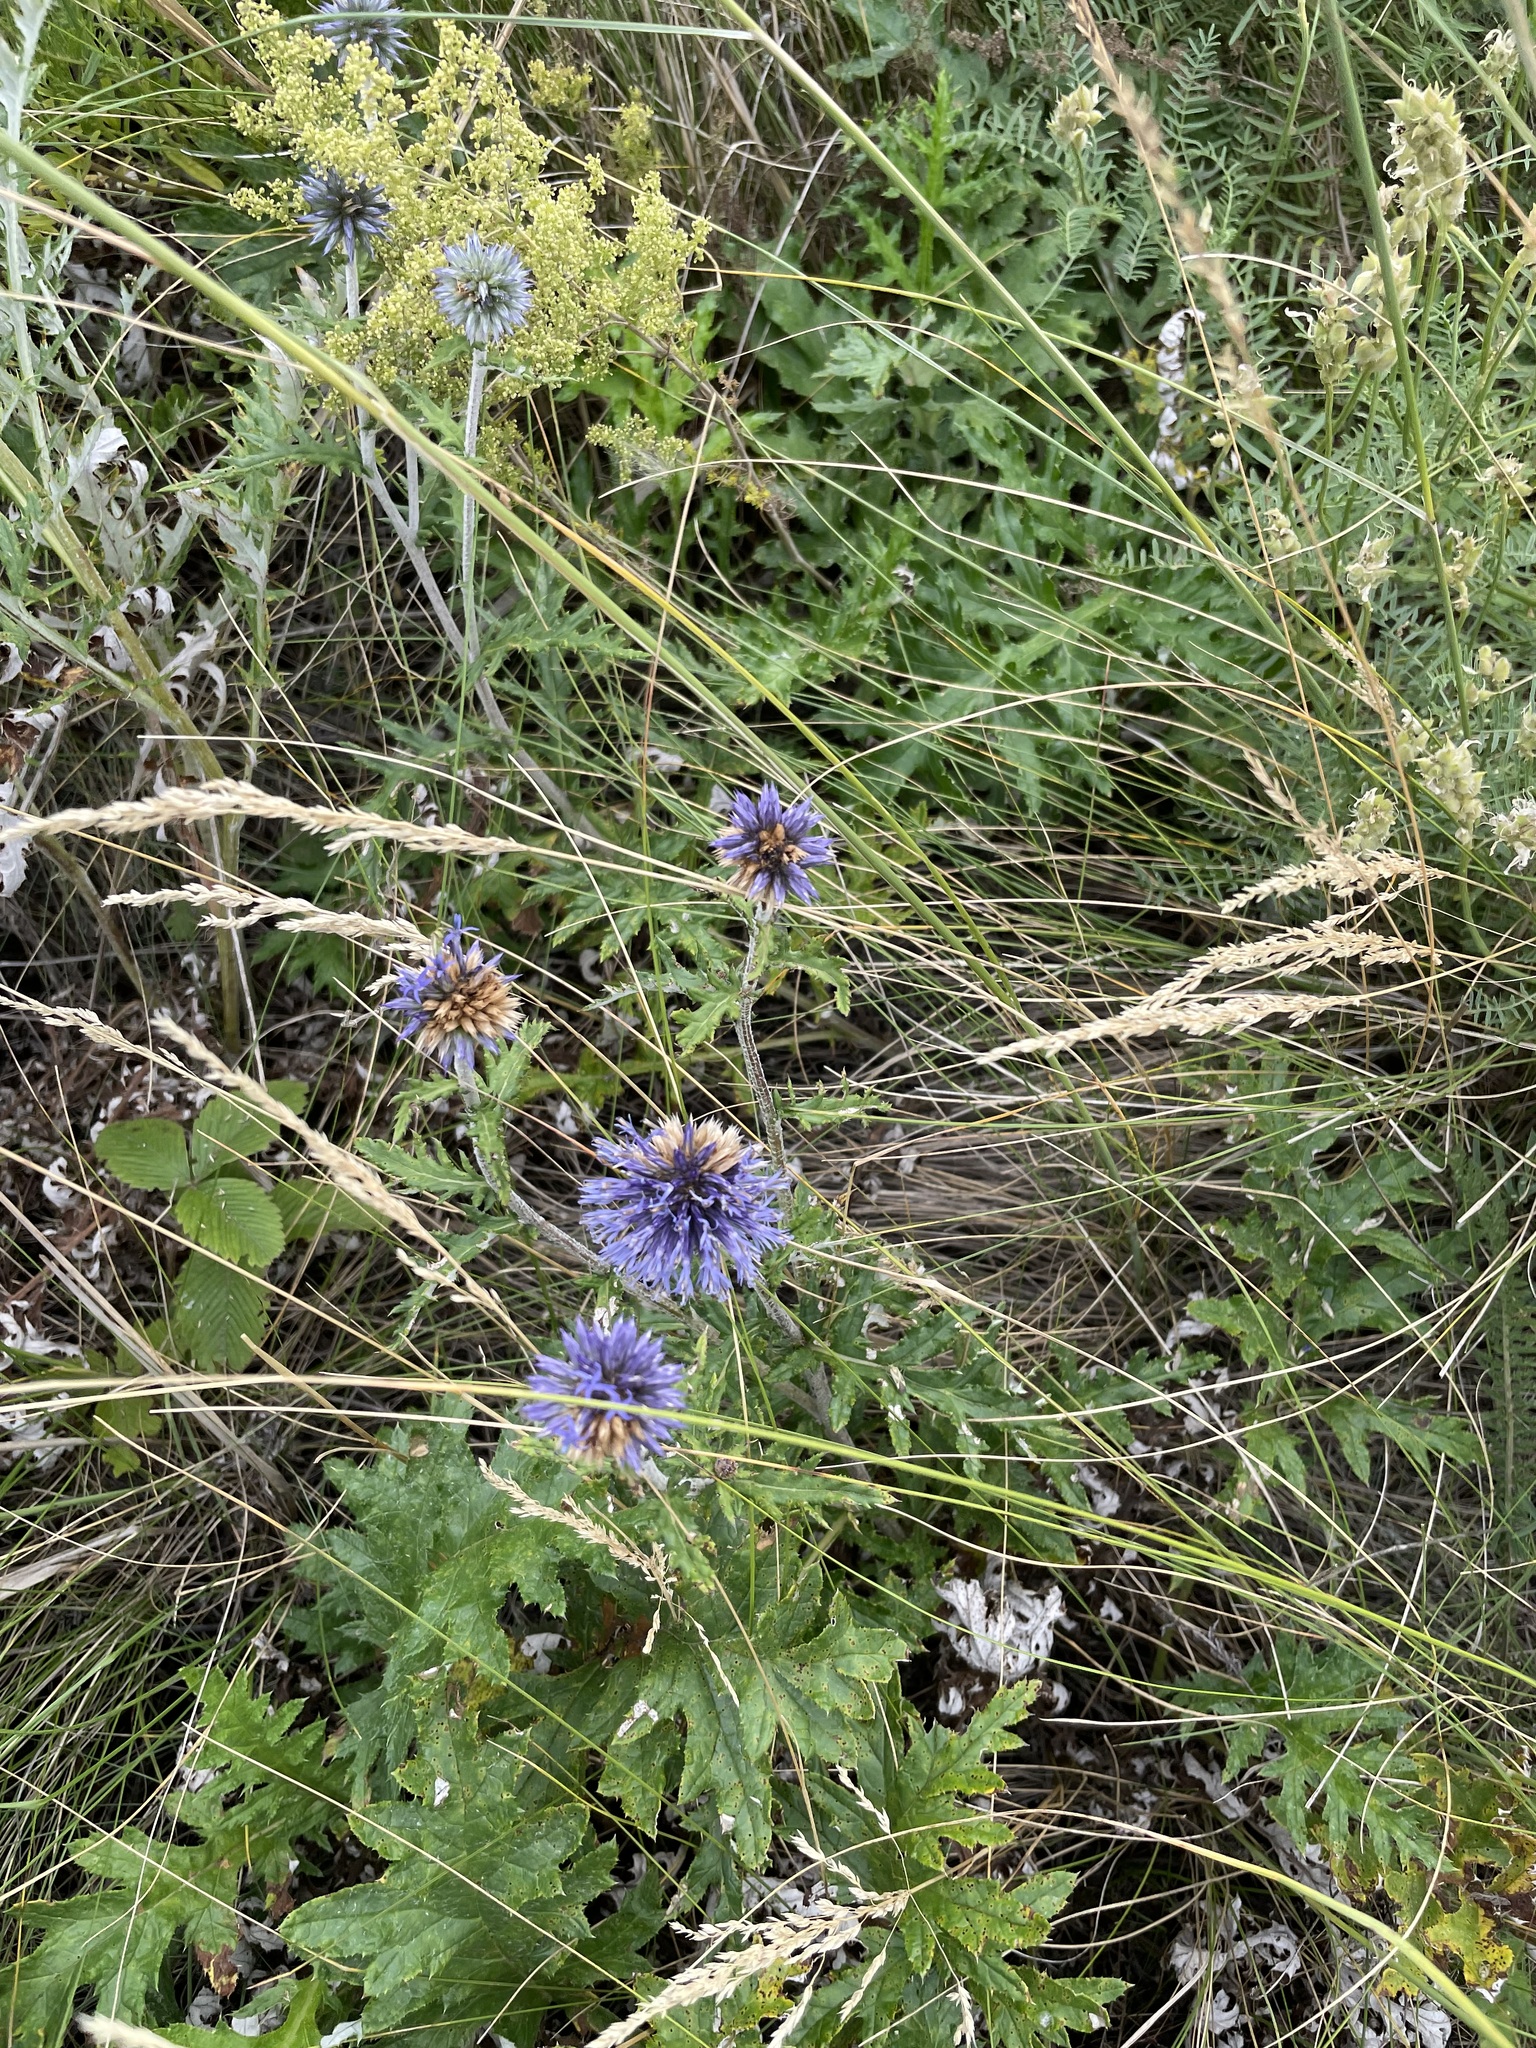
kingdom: Plantae
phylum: Tracheophyta
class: Magnoliopsida
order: Asterales
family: Asteraceae
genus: Echinops
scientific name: Echinops ritro
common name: Globe thistle
